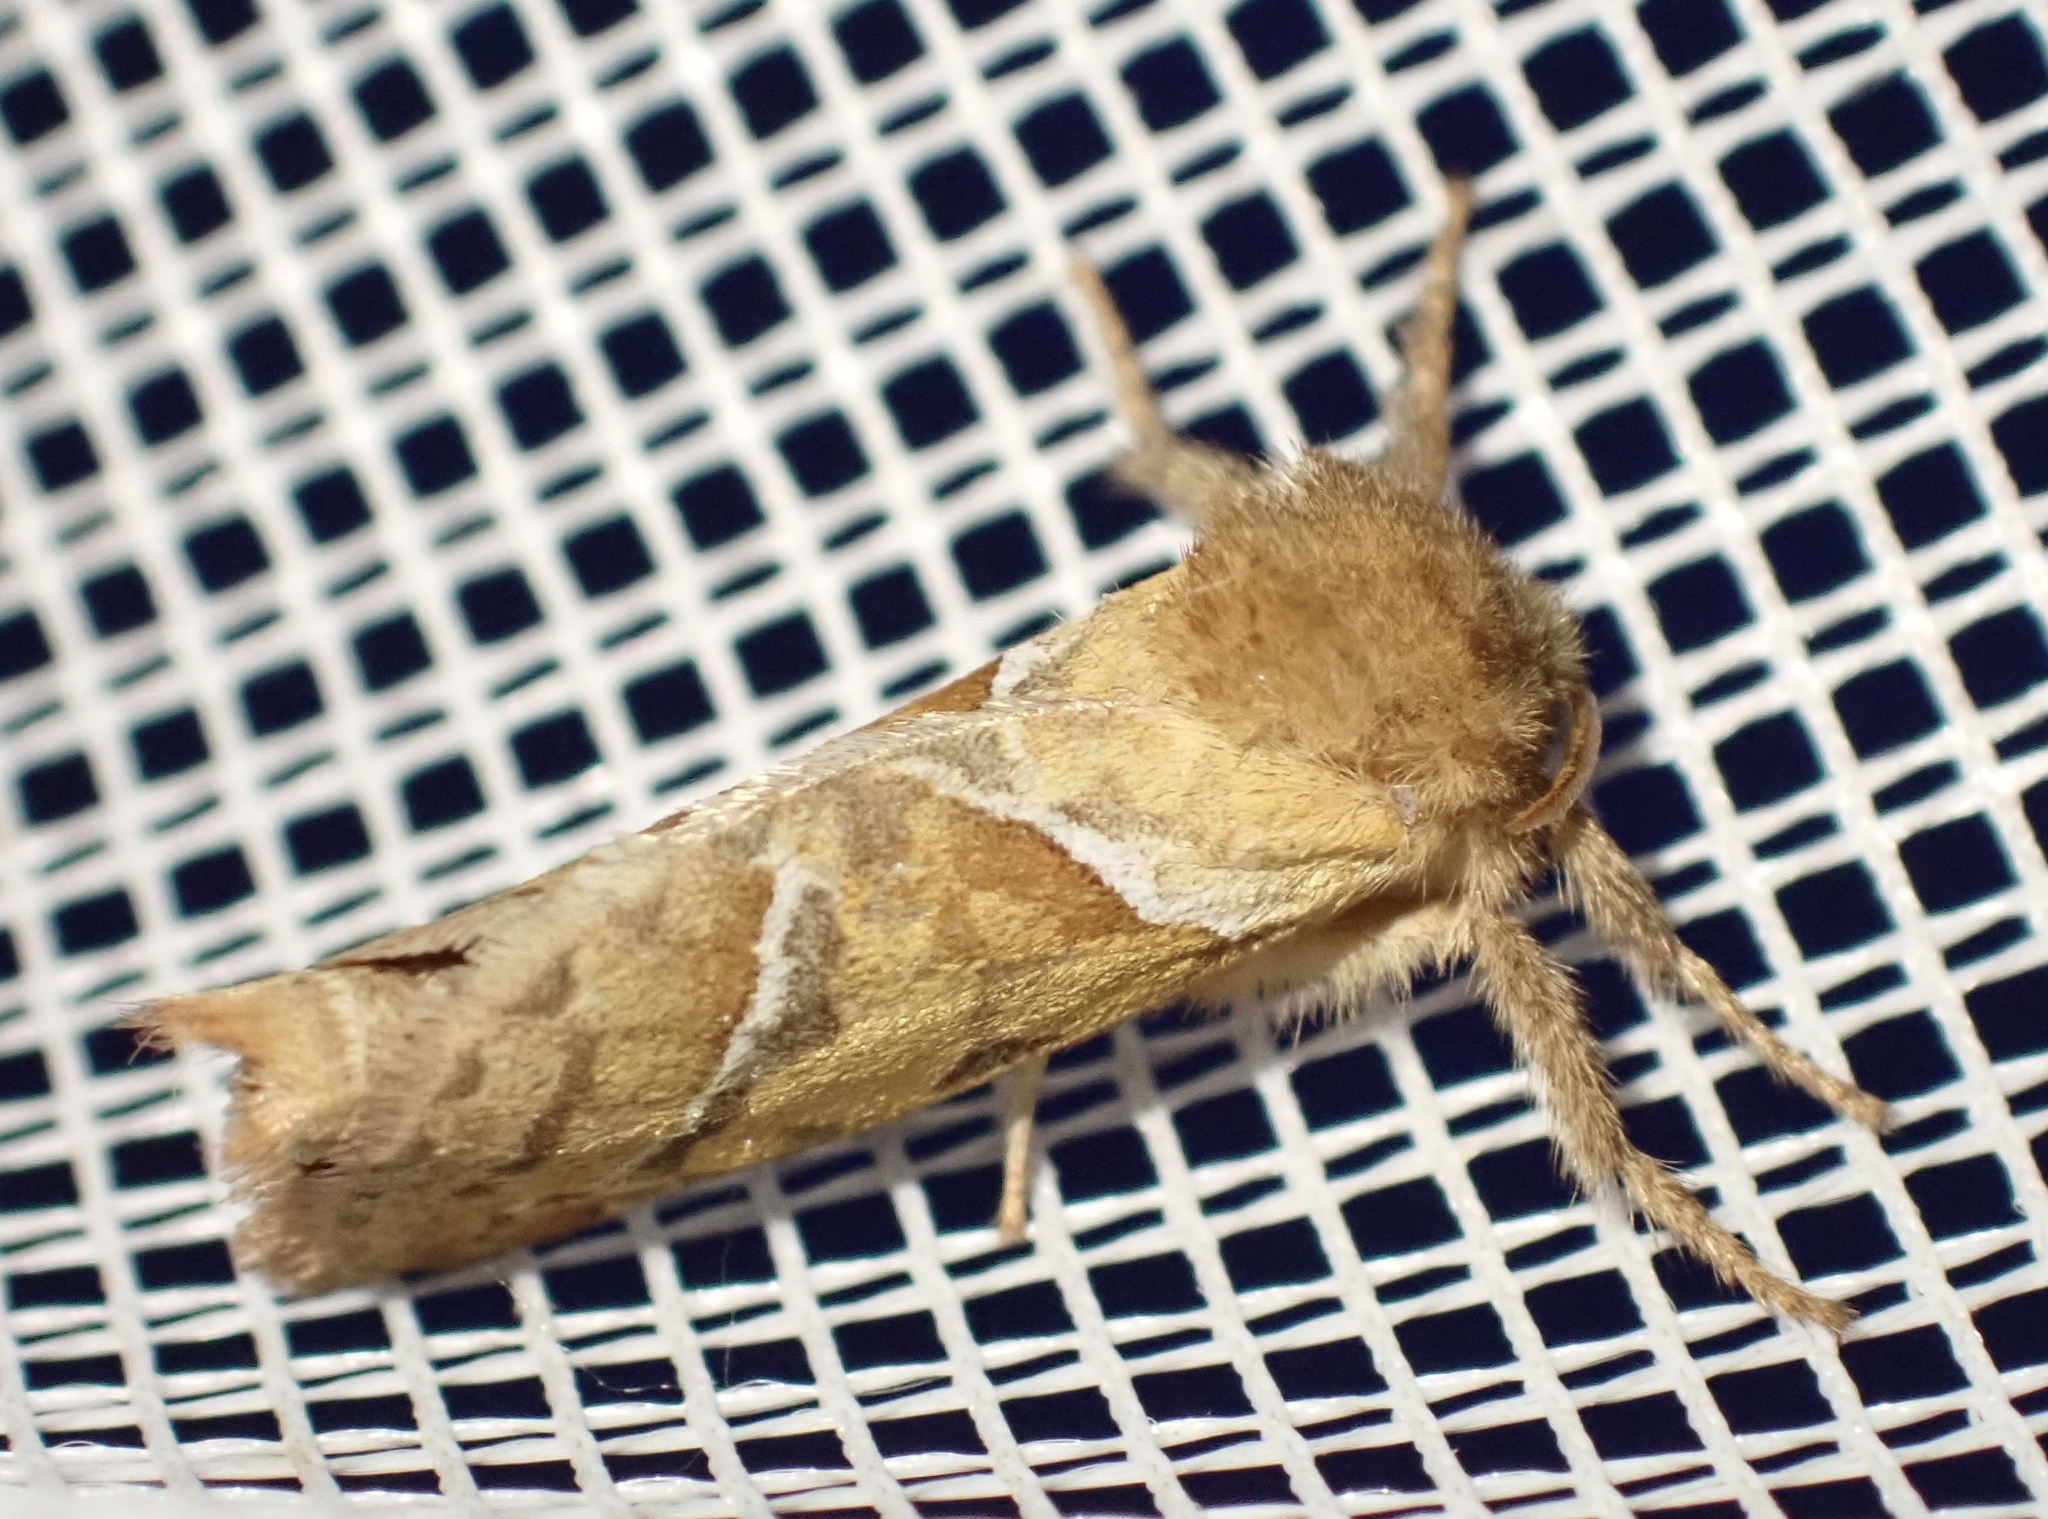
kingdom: Animalia
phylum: Arthropoda
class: Insecta
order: Lepidoptera
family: Hepialidae
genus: Triodia
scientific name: Triodia sylvina
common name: Orange swift
